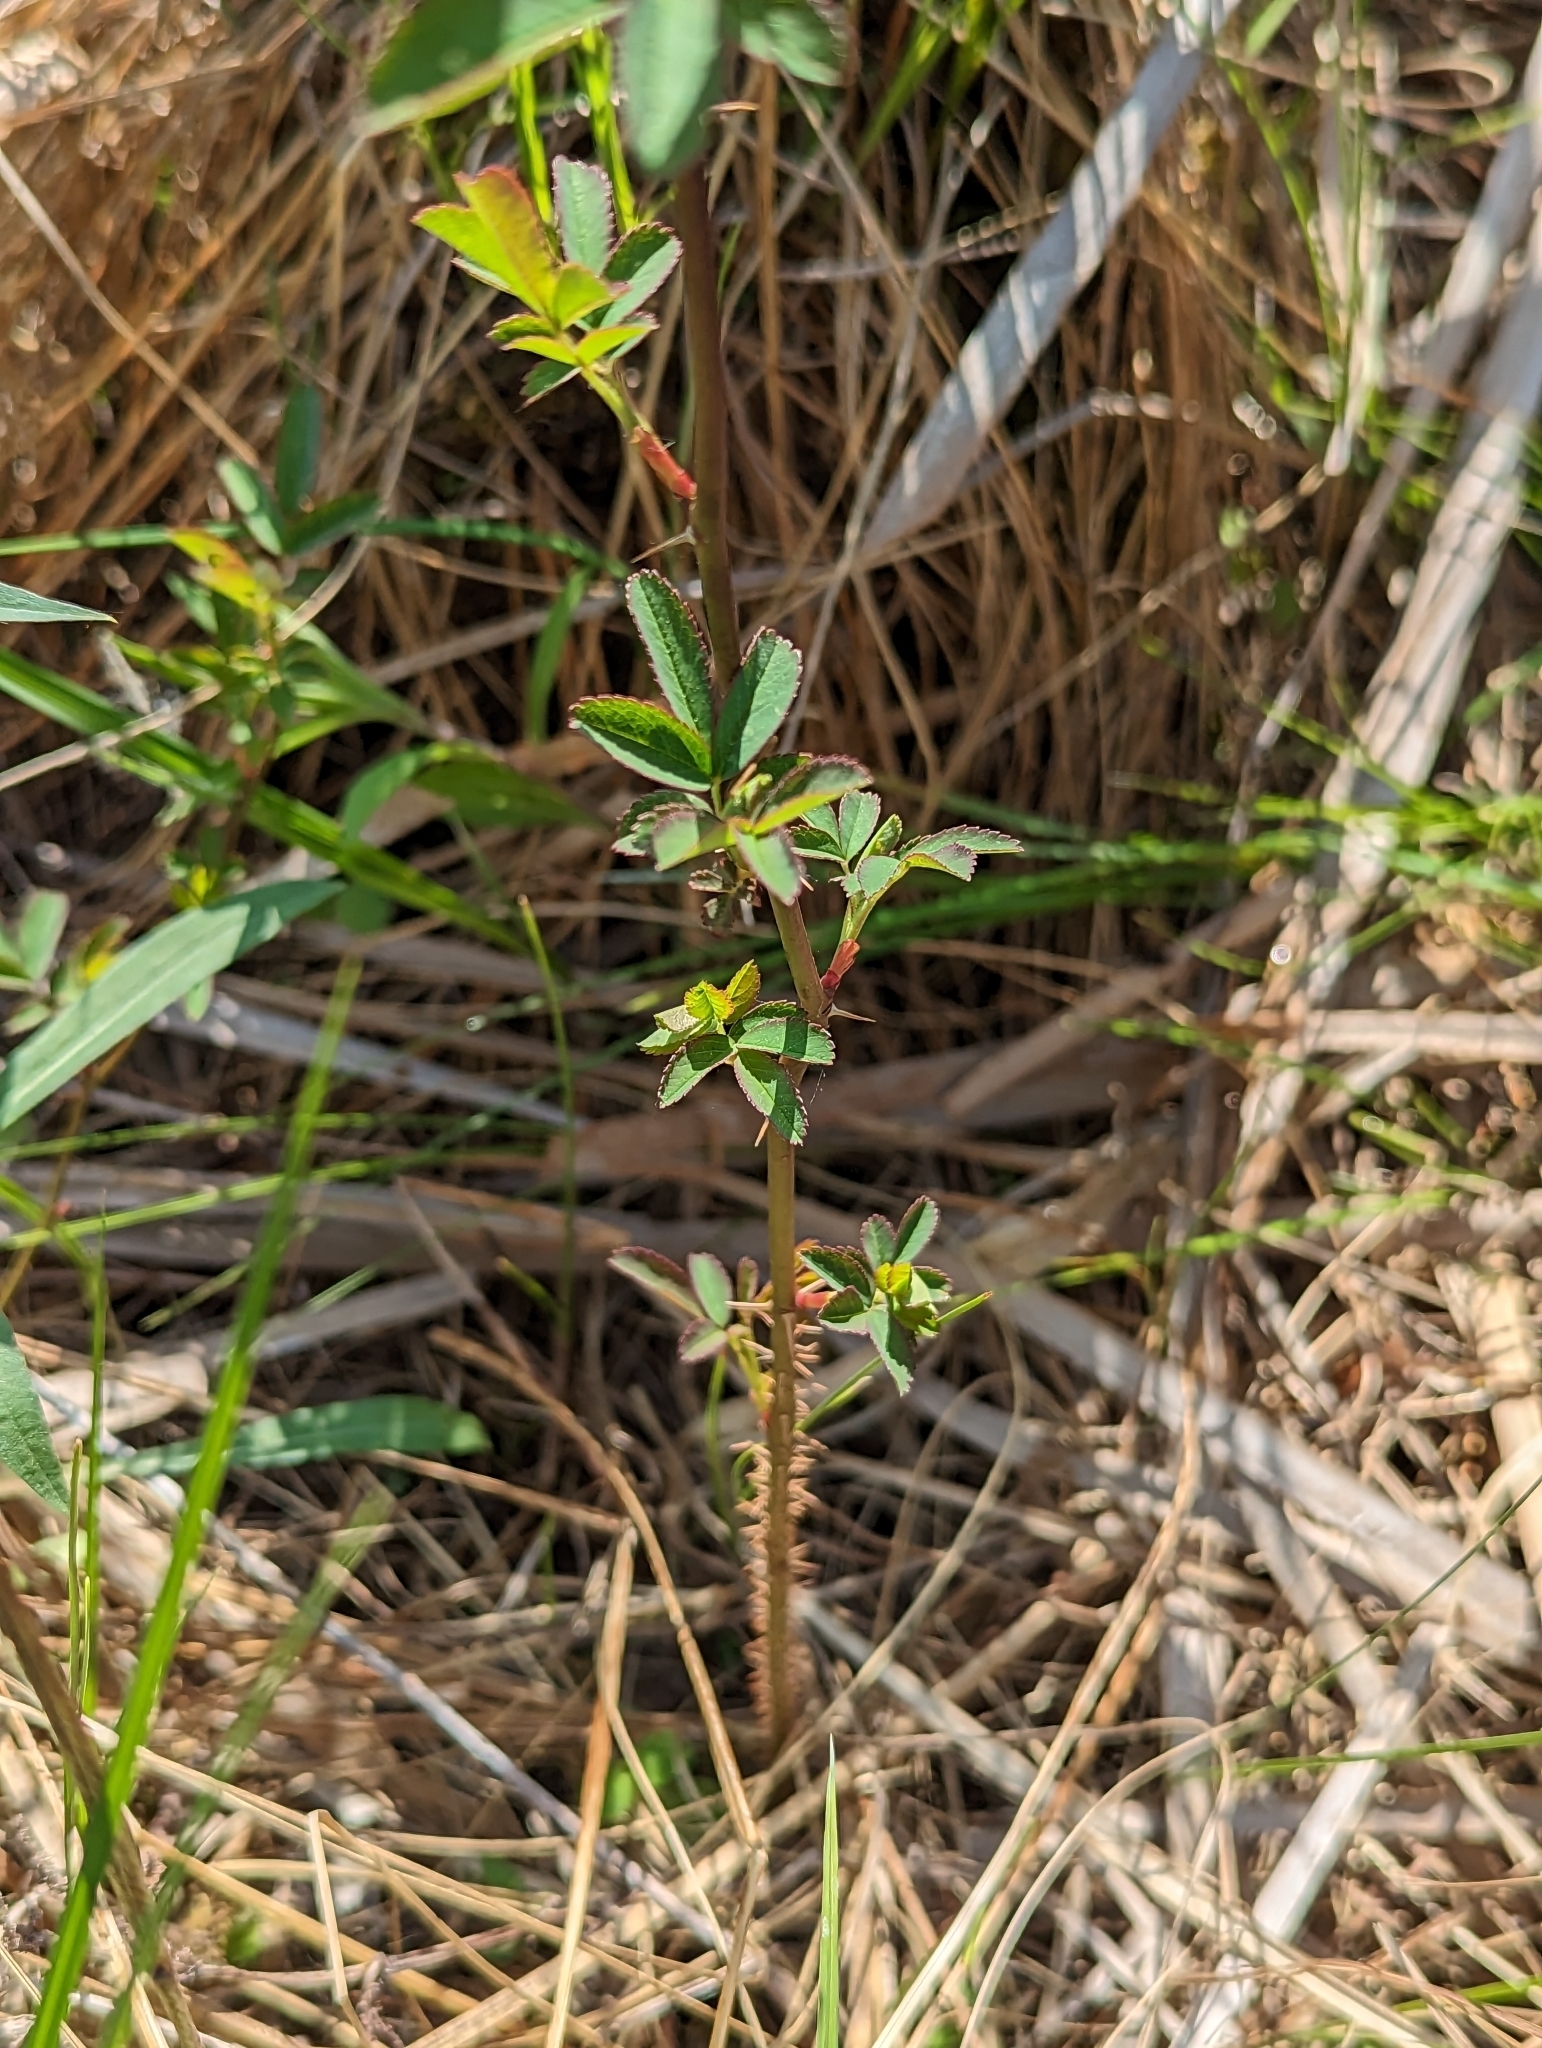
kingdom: Plantae
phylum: Tracheophyta
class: Magnoliopsida
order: Rosales
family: Rosaceae
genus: Rosa
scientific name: Rosa palustris
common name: Swamp rose
